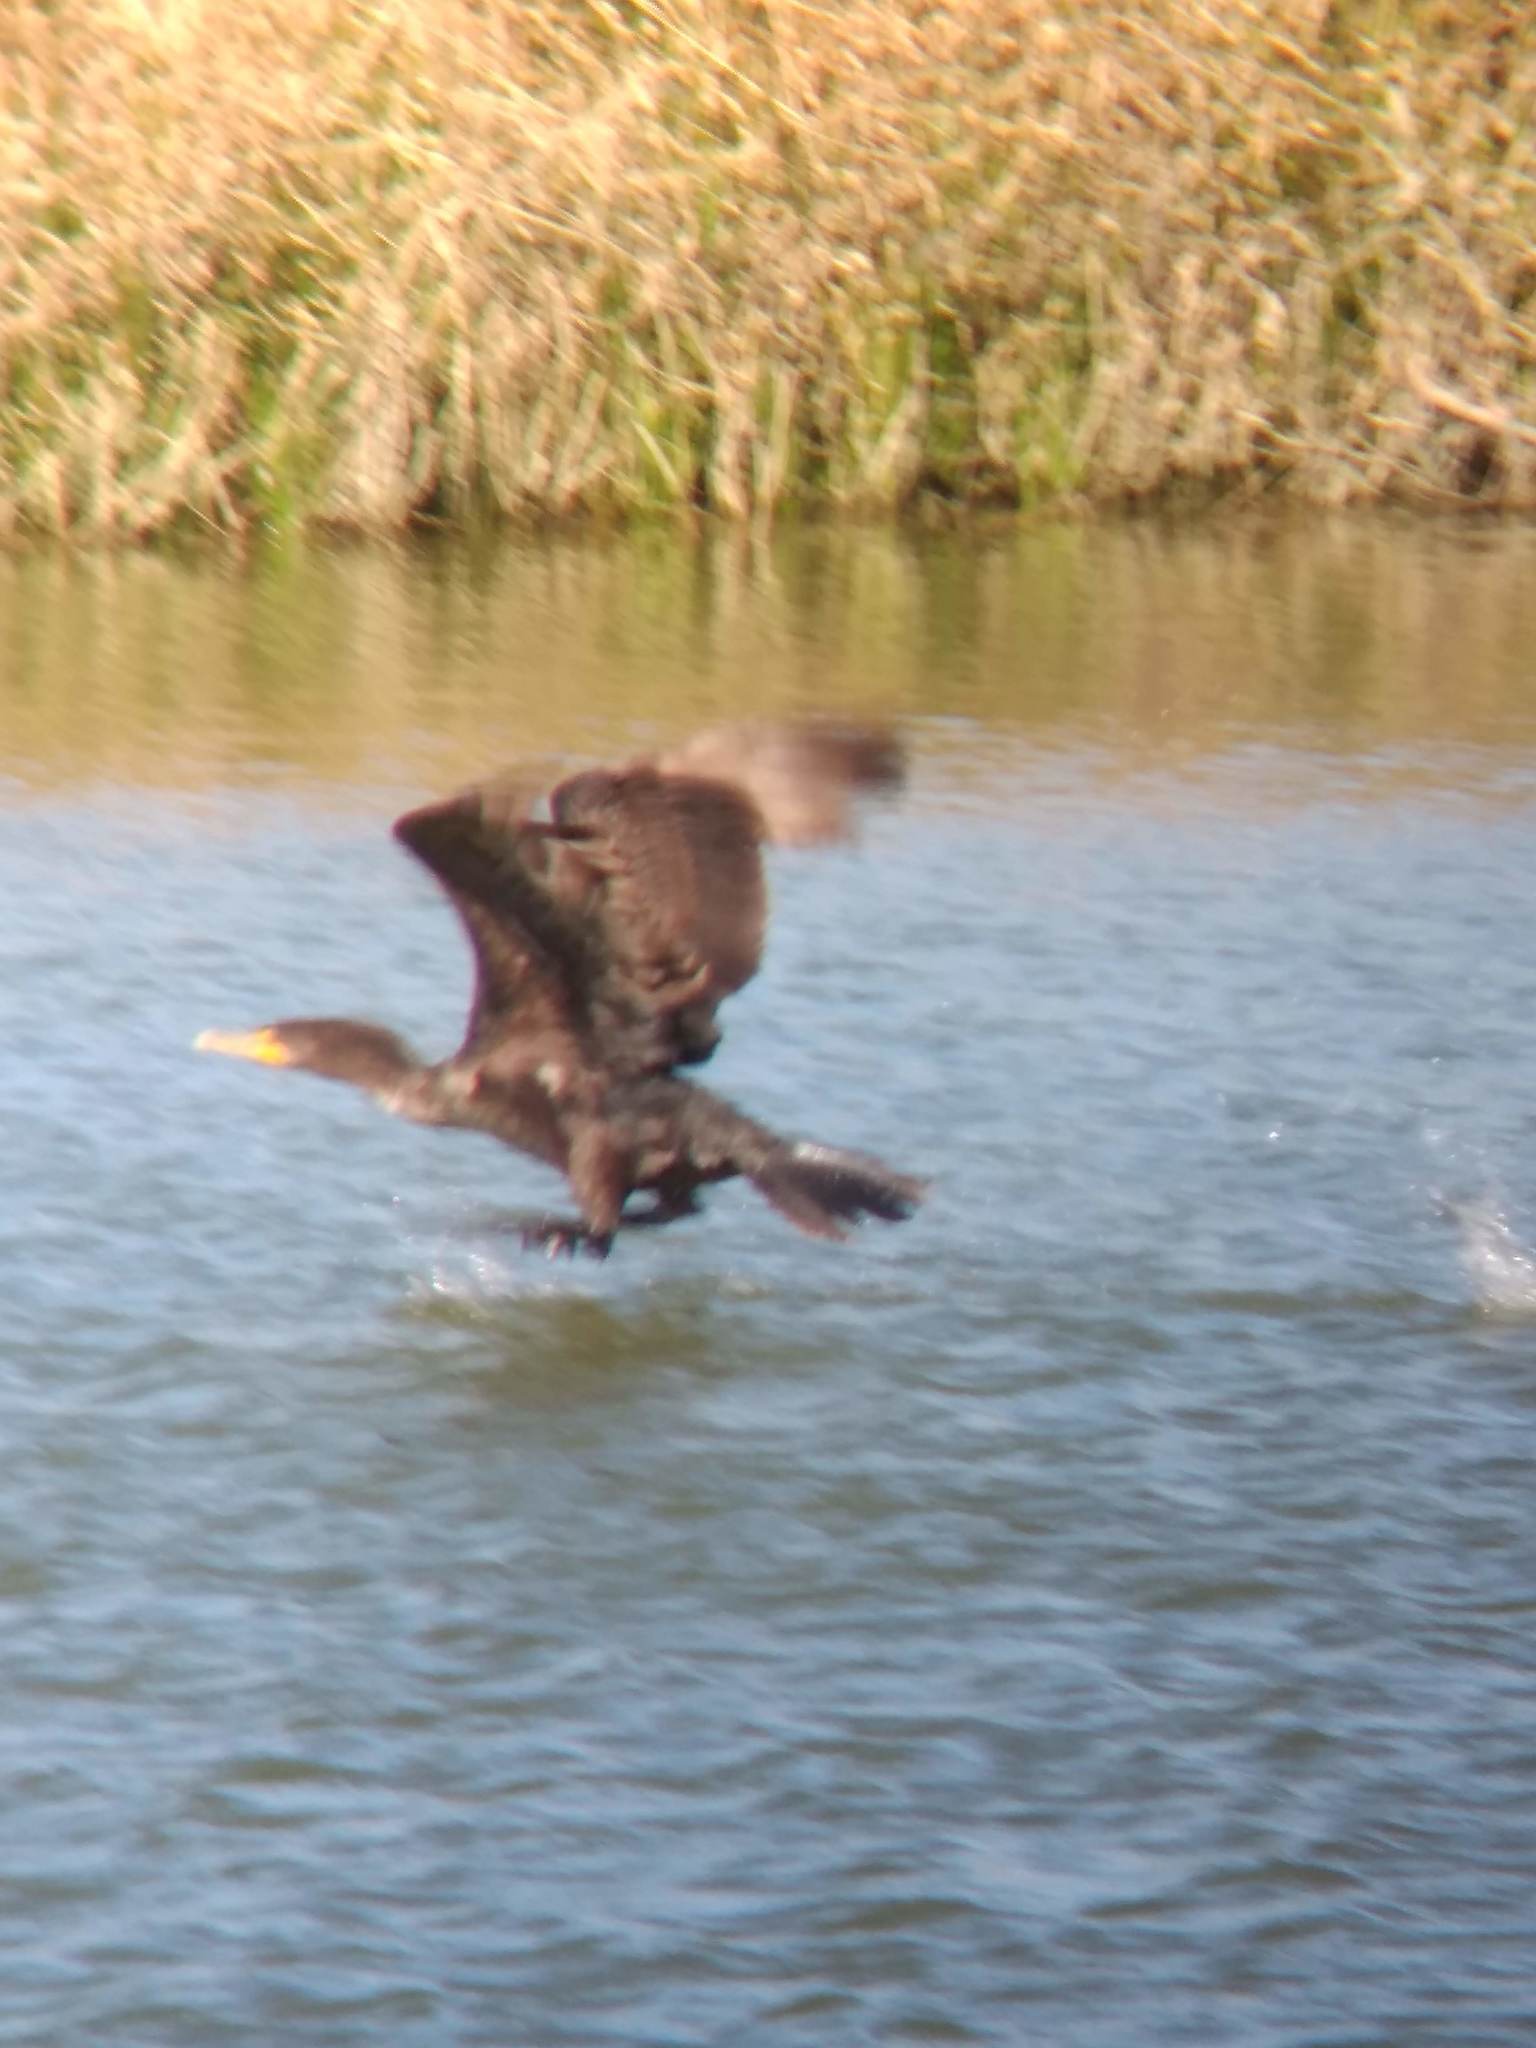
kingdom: Animalia
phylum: Chordata
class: Aves
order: Suliformes
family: Phalacrocoracidae
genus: Phalacrocorax
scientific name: Phalacrocorax auritus
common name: Double-crested cormorant
